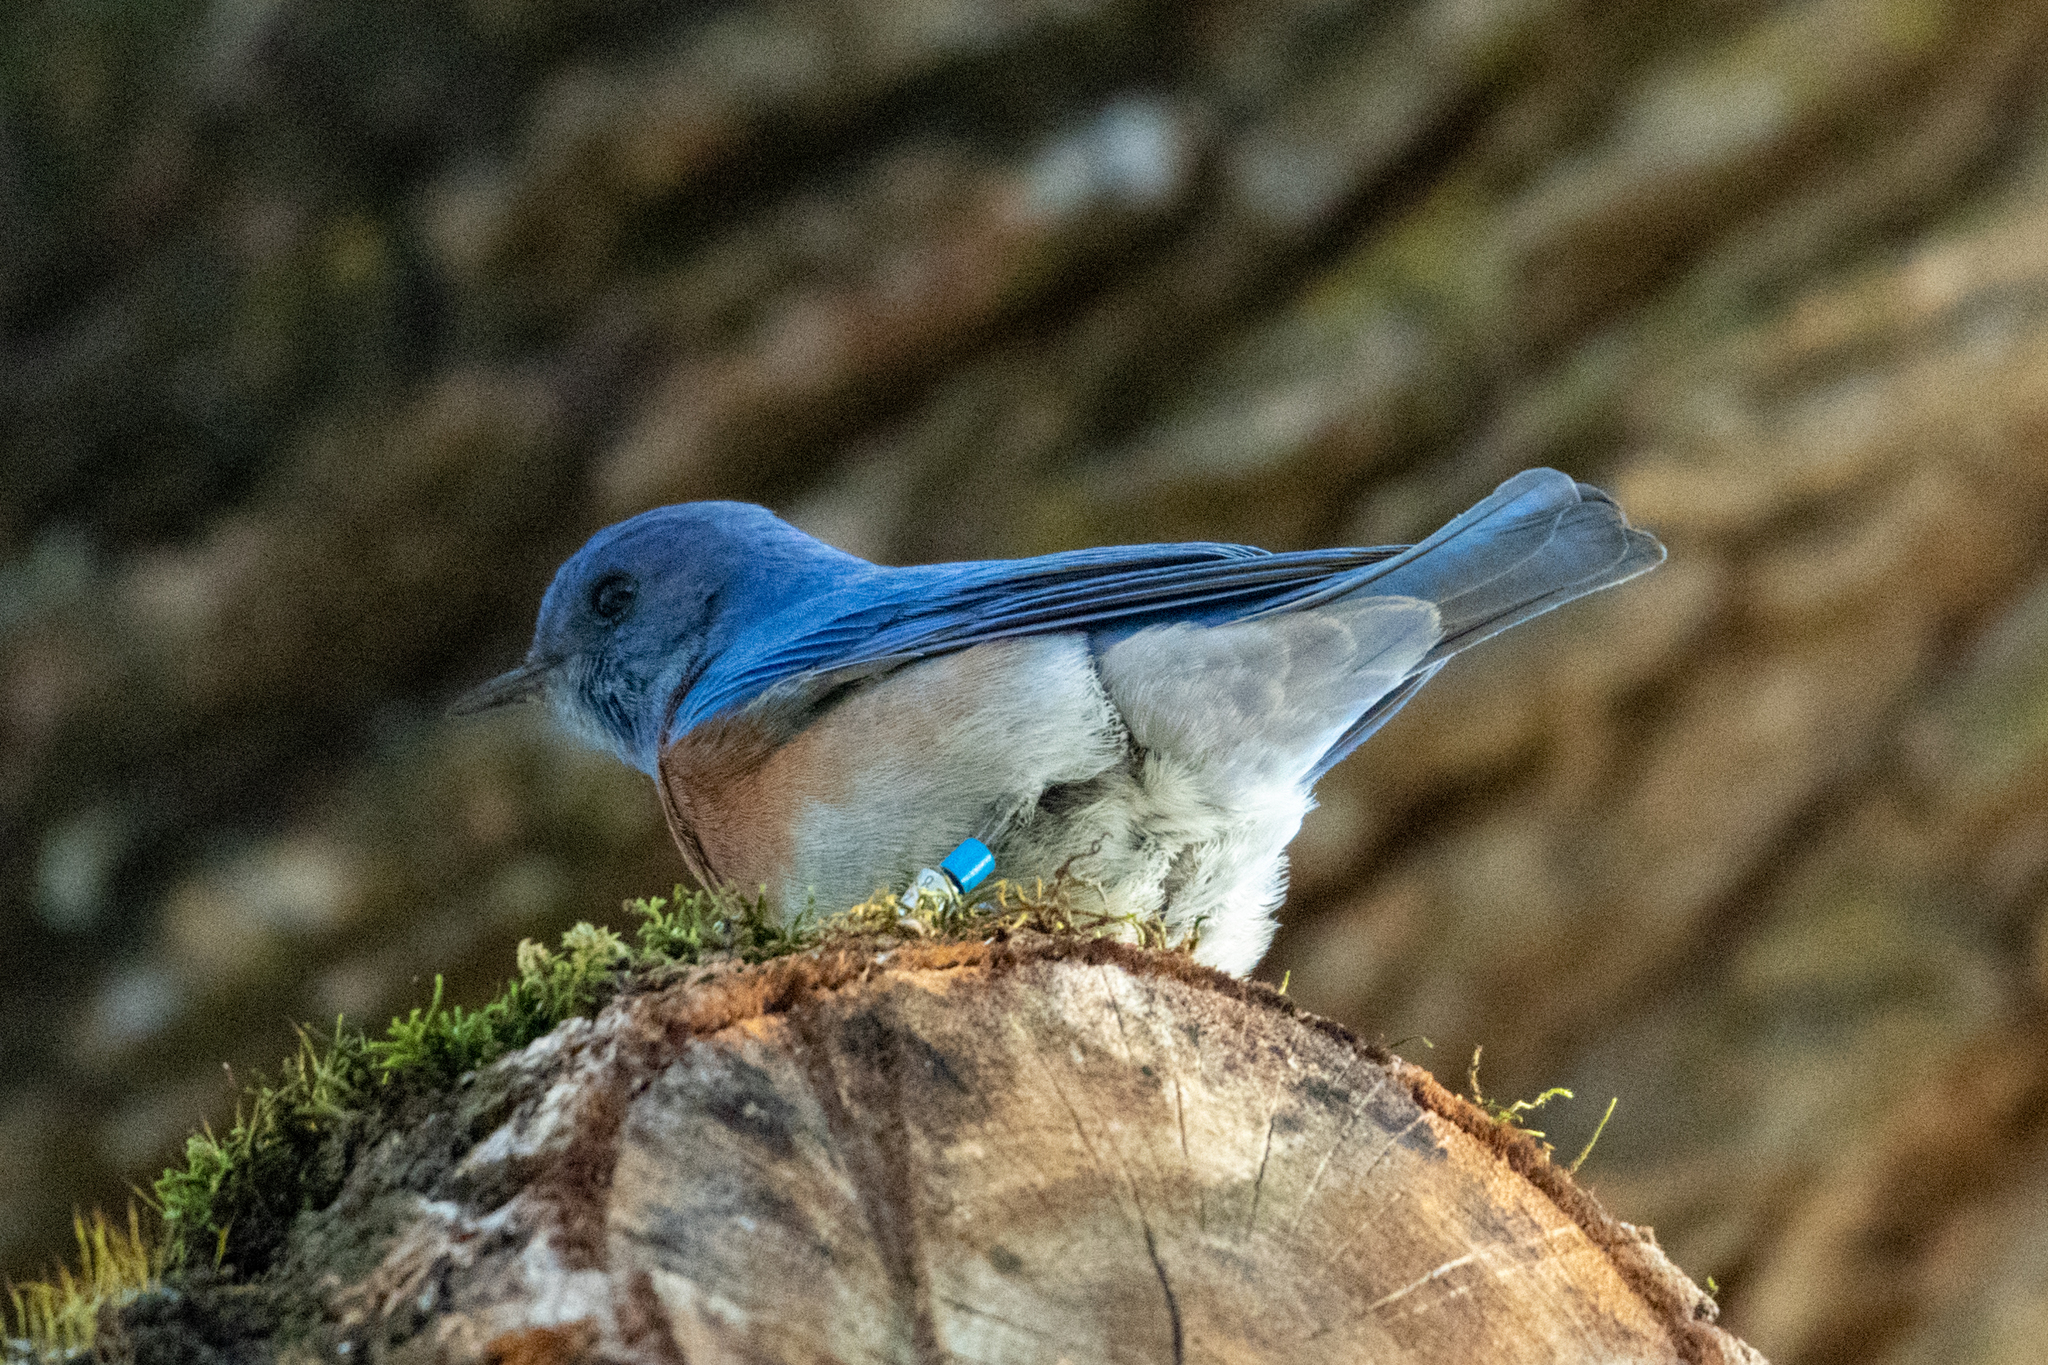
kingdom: Animalia
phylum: Chordata
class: Aves
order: Passeriformes
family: Turdidae
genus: Sialia
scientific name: Sialia mexicana
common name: Western bluebird
